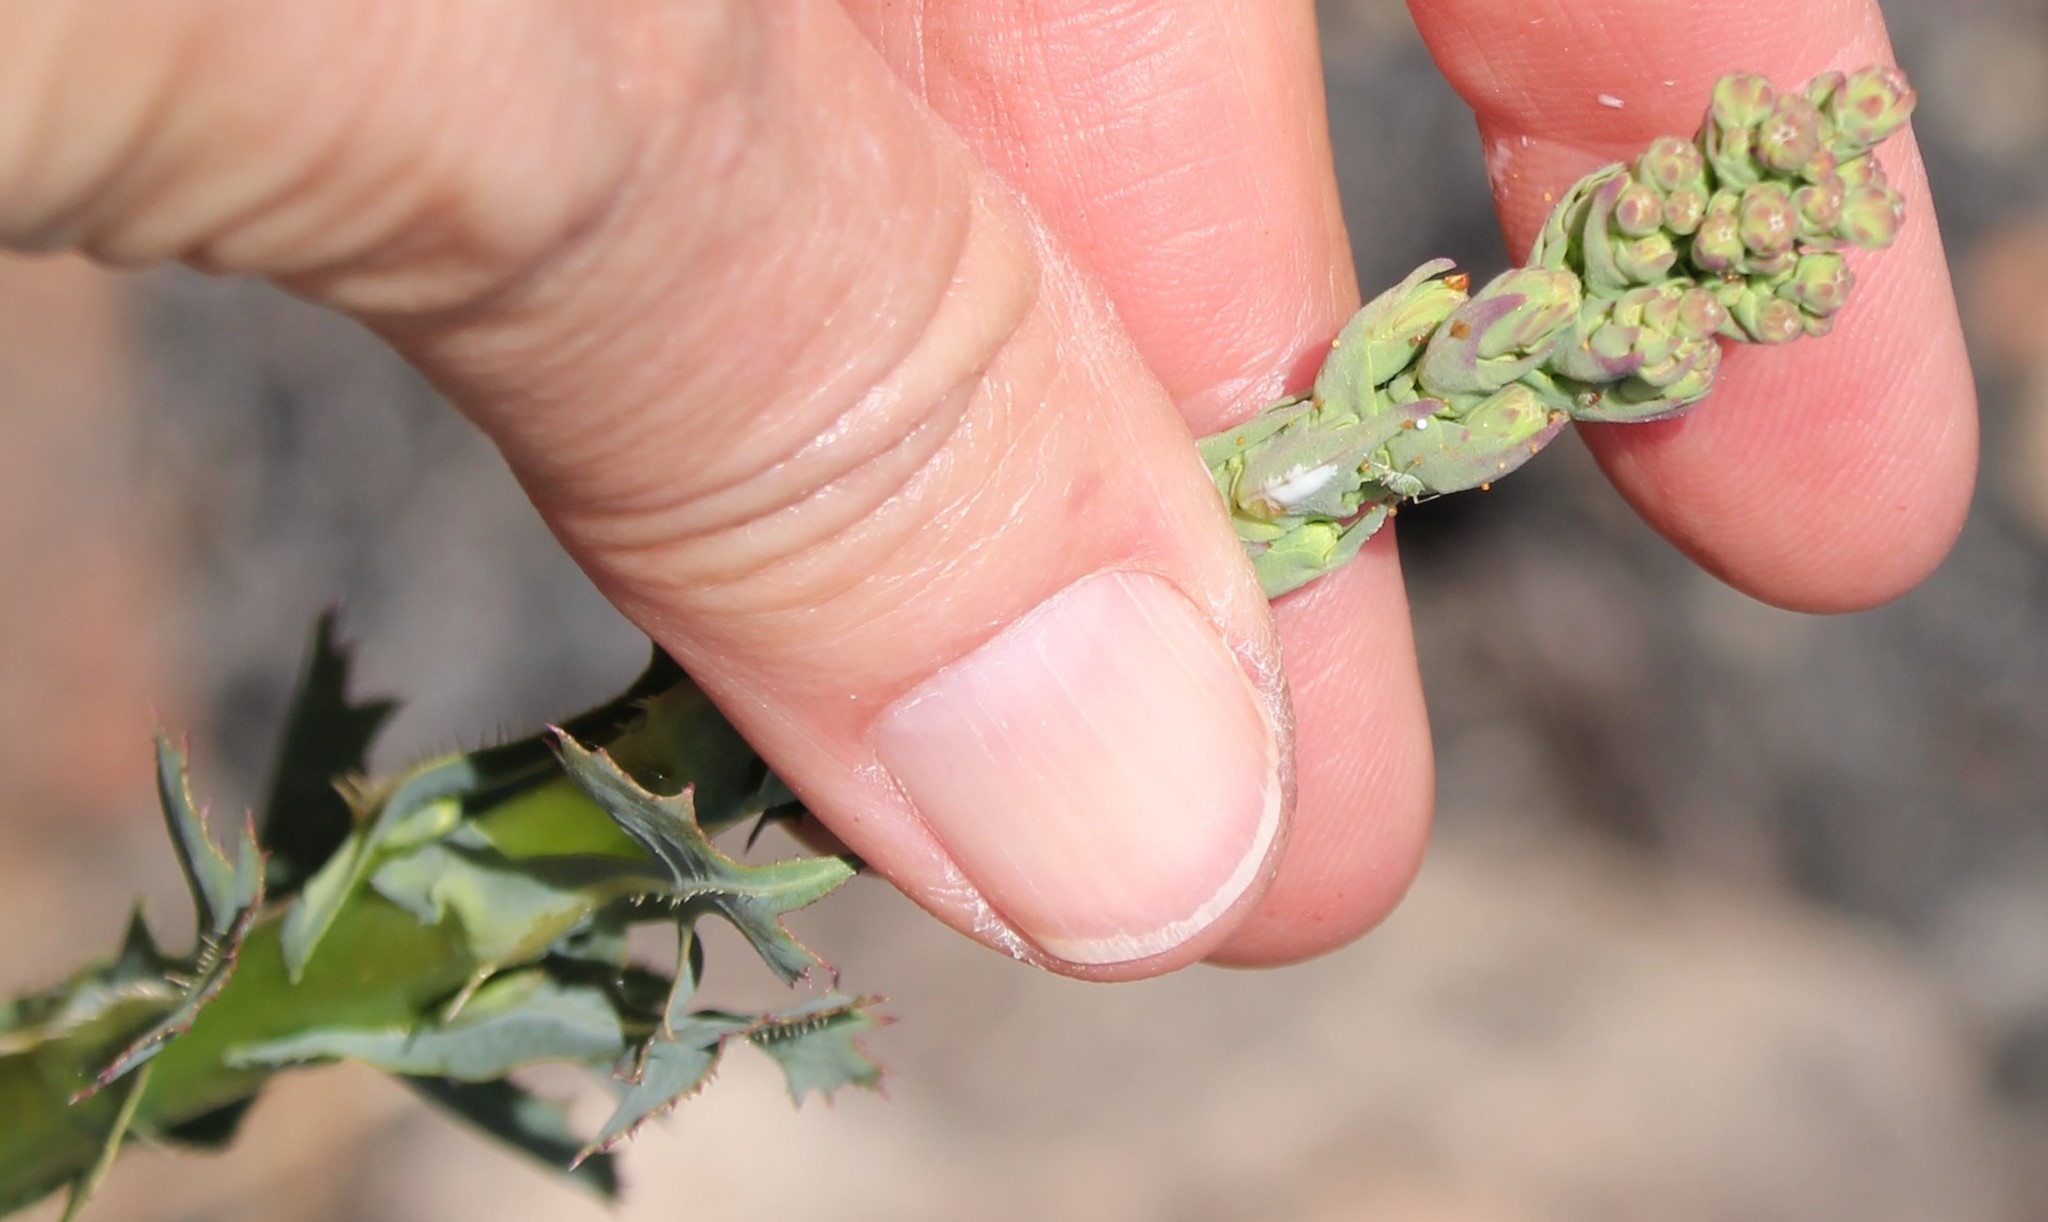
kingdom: Plantae
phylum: Tracheophyta
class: Magnoliopsida
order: Asterales
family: Asteraceae
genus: Lactuca
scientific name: Lactuca serriola
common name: Prickly lettuce
